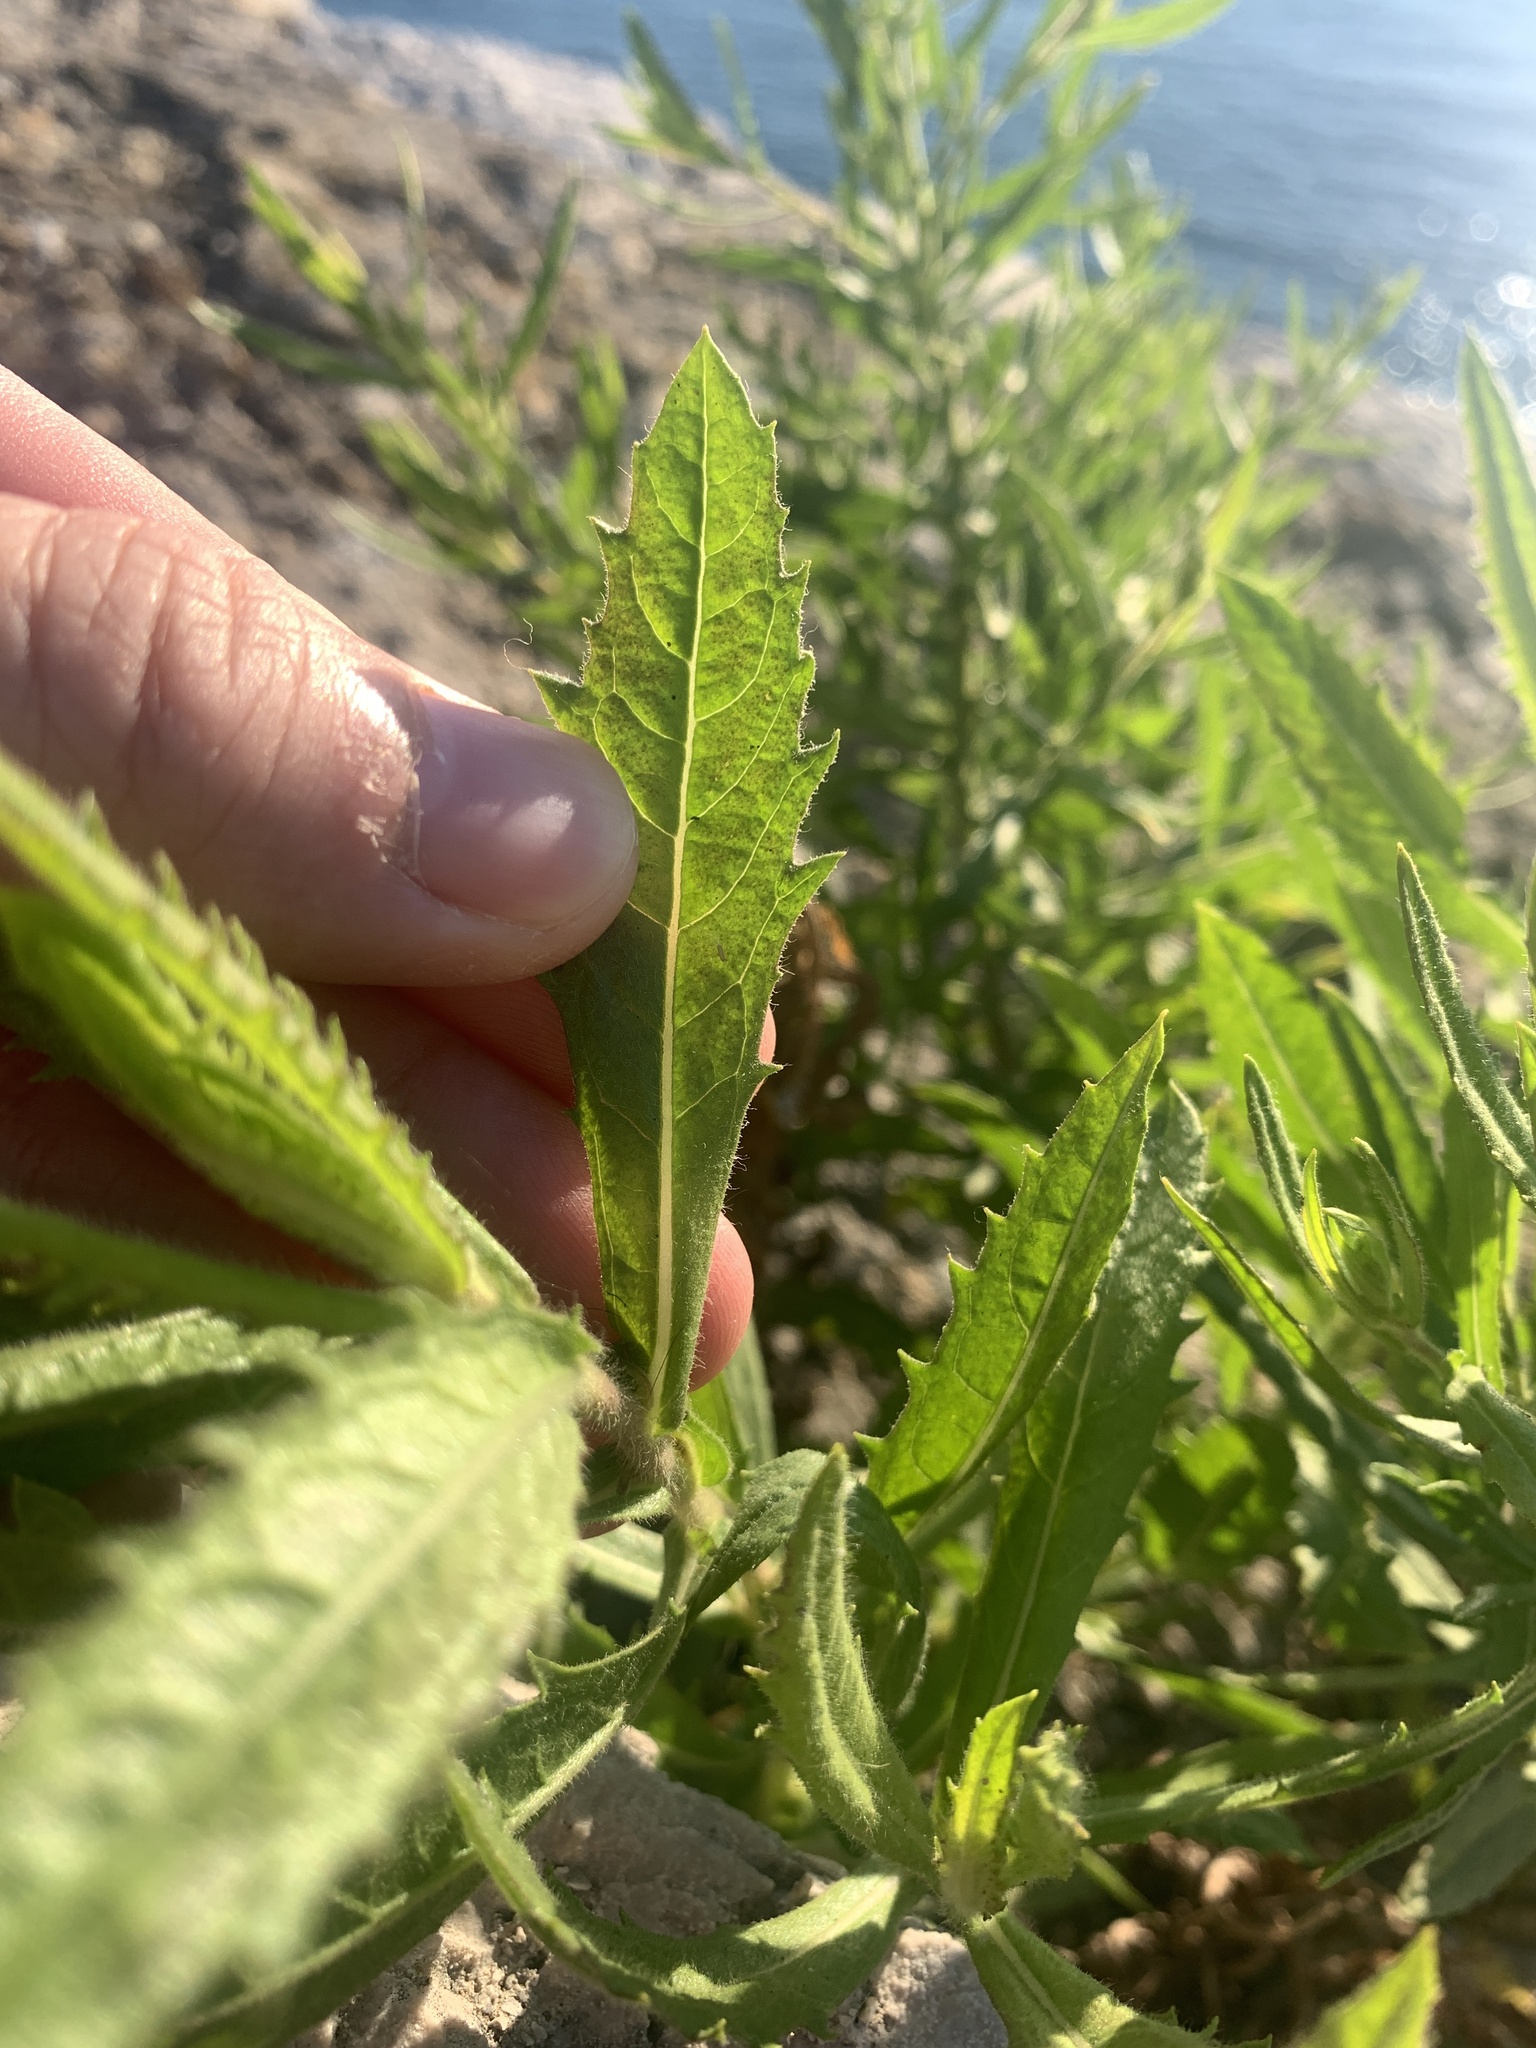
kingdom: Plantae
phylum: Tracheophyta
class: Magnoliopsida
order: Asterales
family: Asteraceae
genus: Dittrichia
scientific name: Dittrichia viscosa
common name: Woody fleabane
